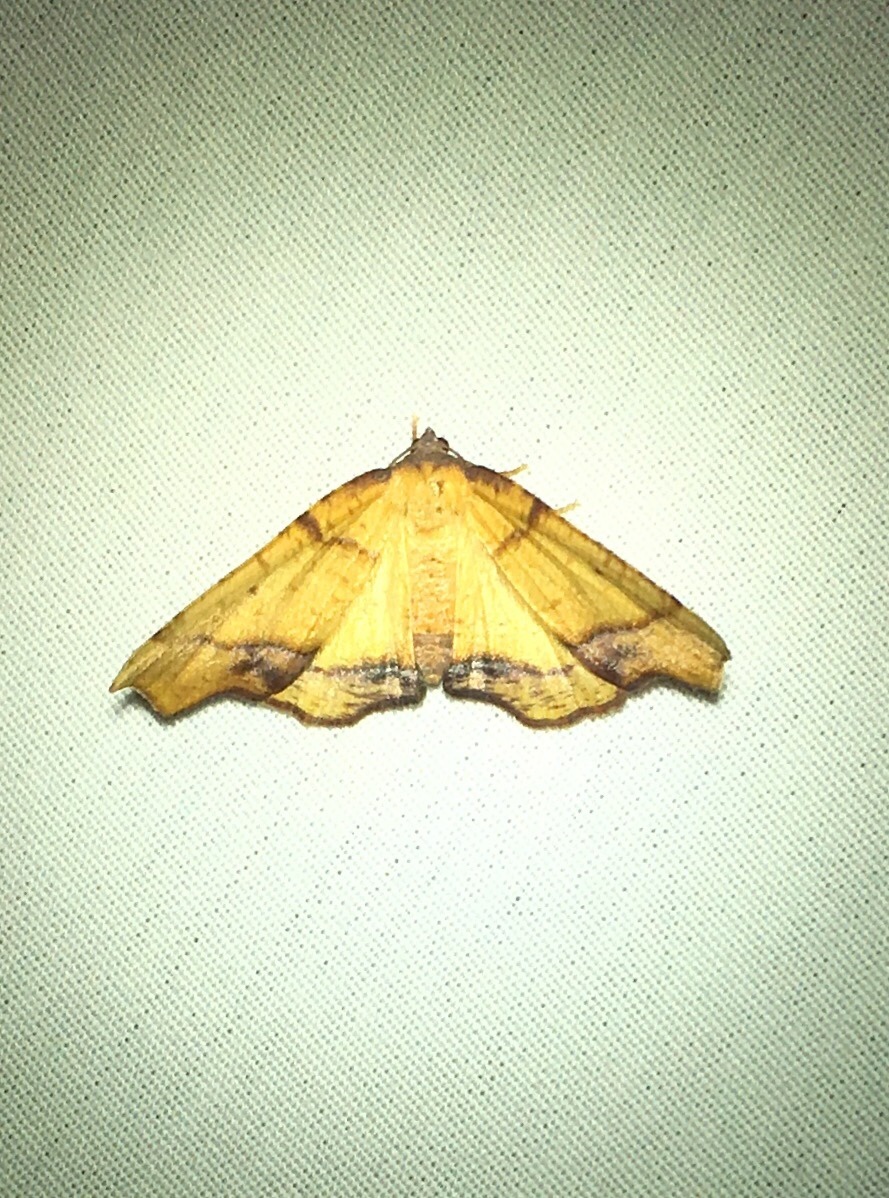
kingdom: Animalia
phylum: Arthropoda
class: Insecta
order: Lepidoptera
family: Geometridae
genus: Plagodis
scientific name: Plagodis phlogosaria
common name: Straight-lined plagodis
